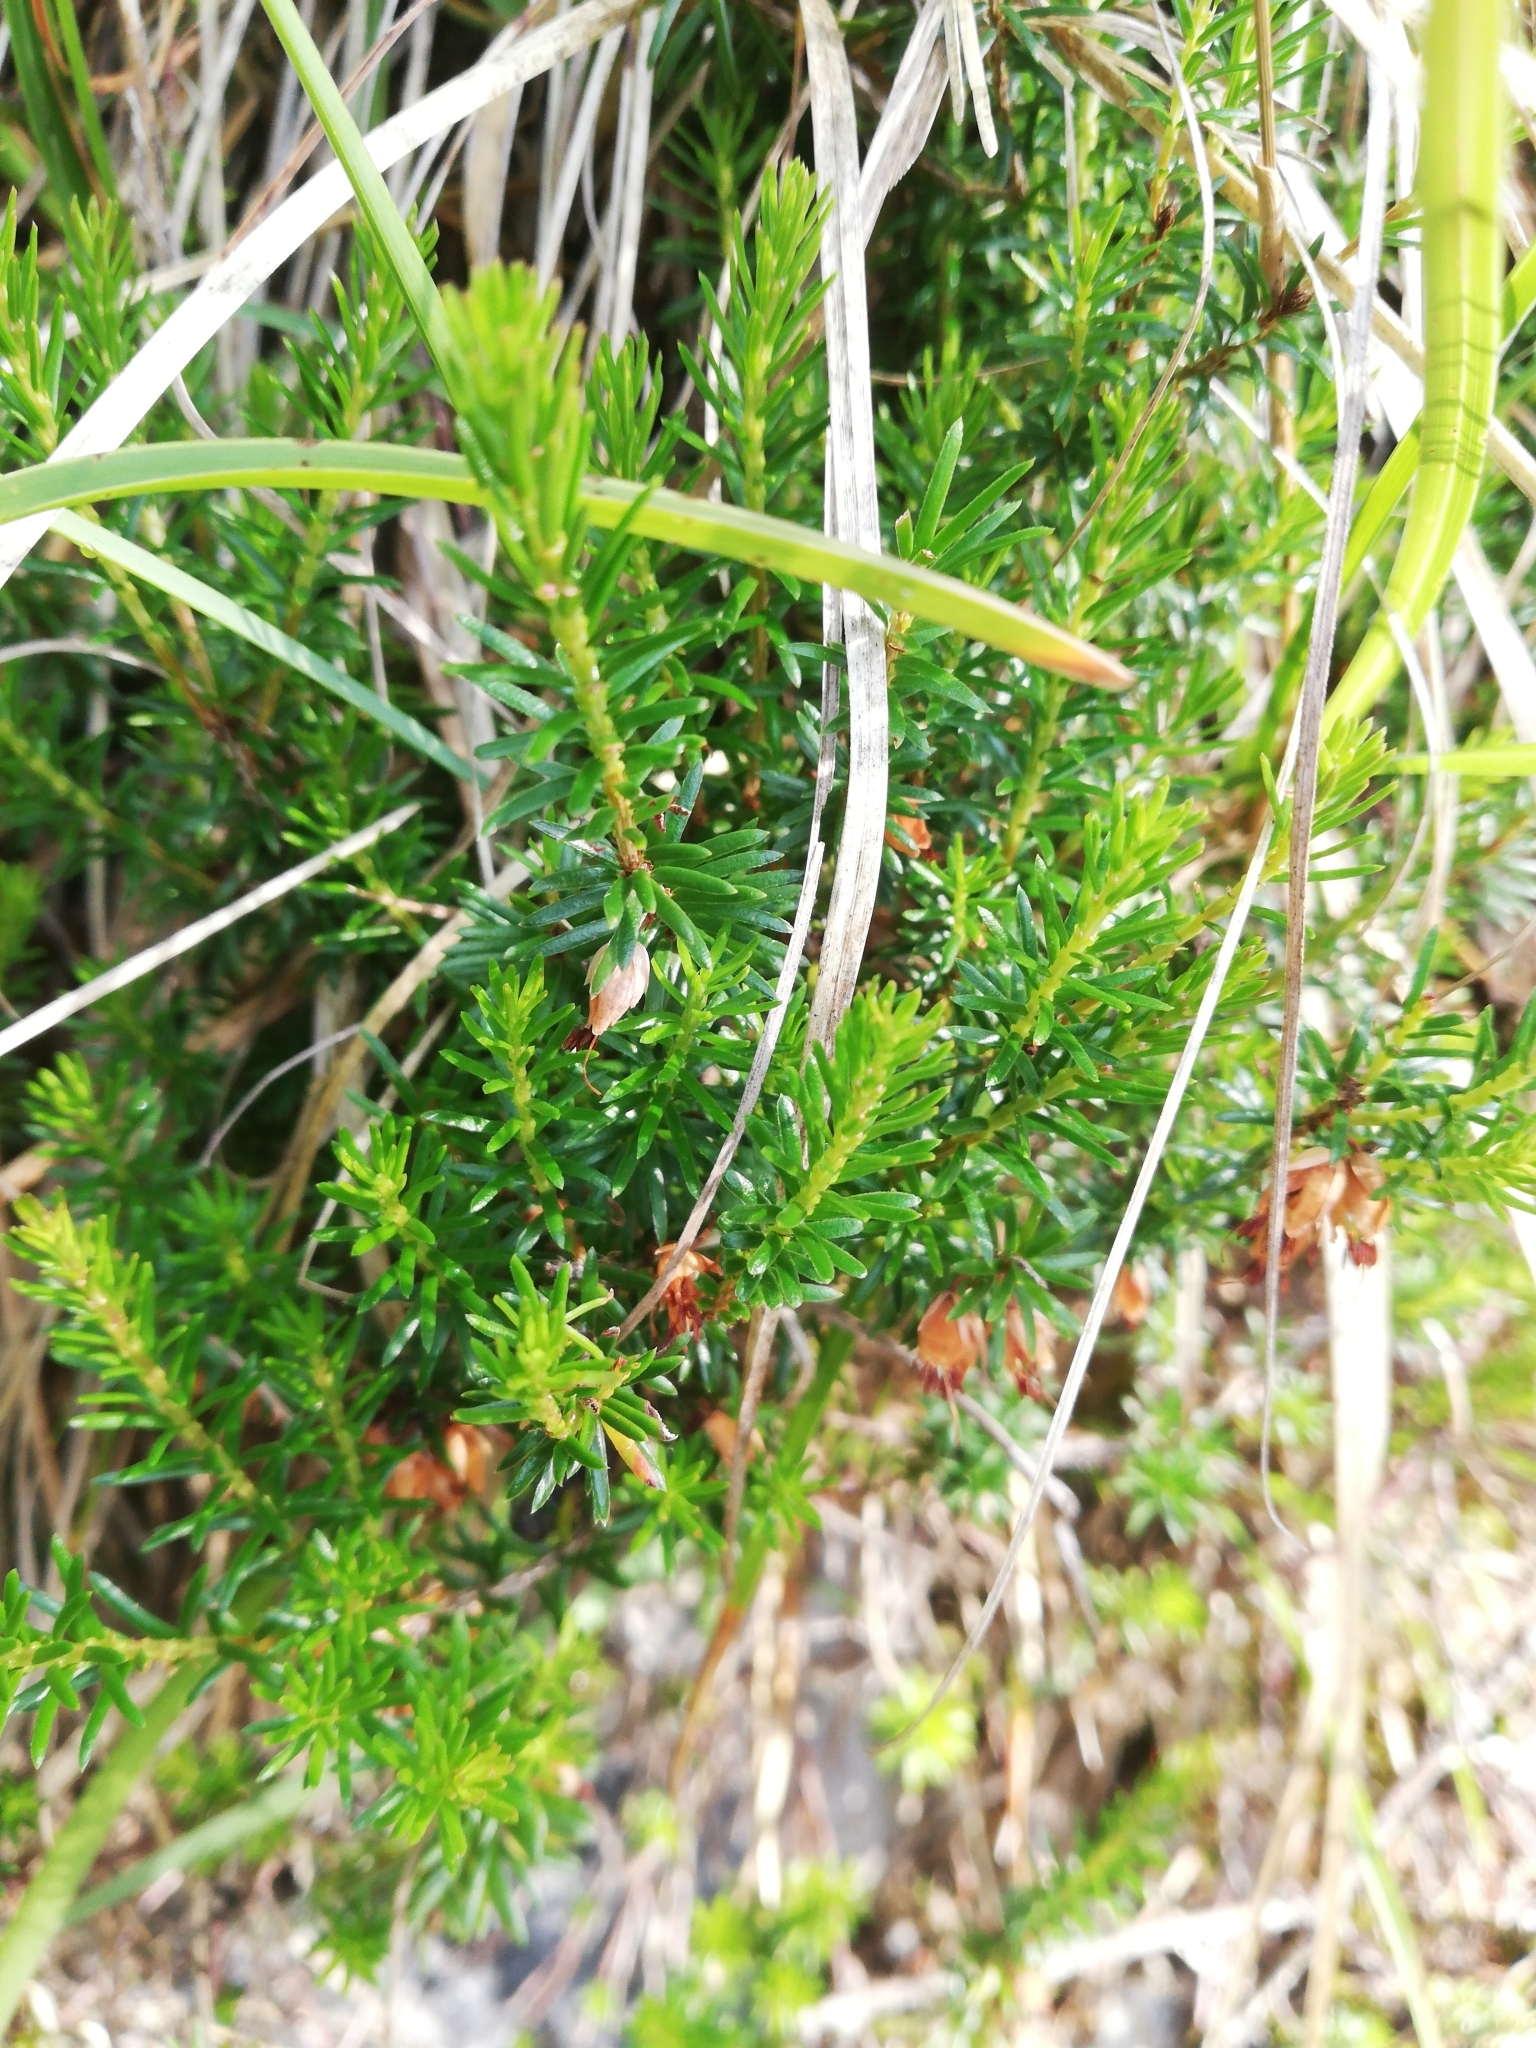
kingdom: Plantae
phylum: Tracheophyta
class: Magnoliopsida
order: Ericales
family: Ericaceae
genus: Erica
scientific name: Erica carnea
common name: Winter heath
